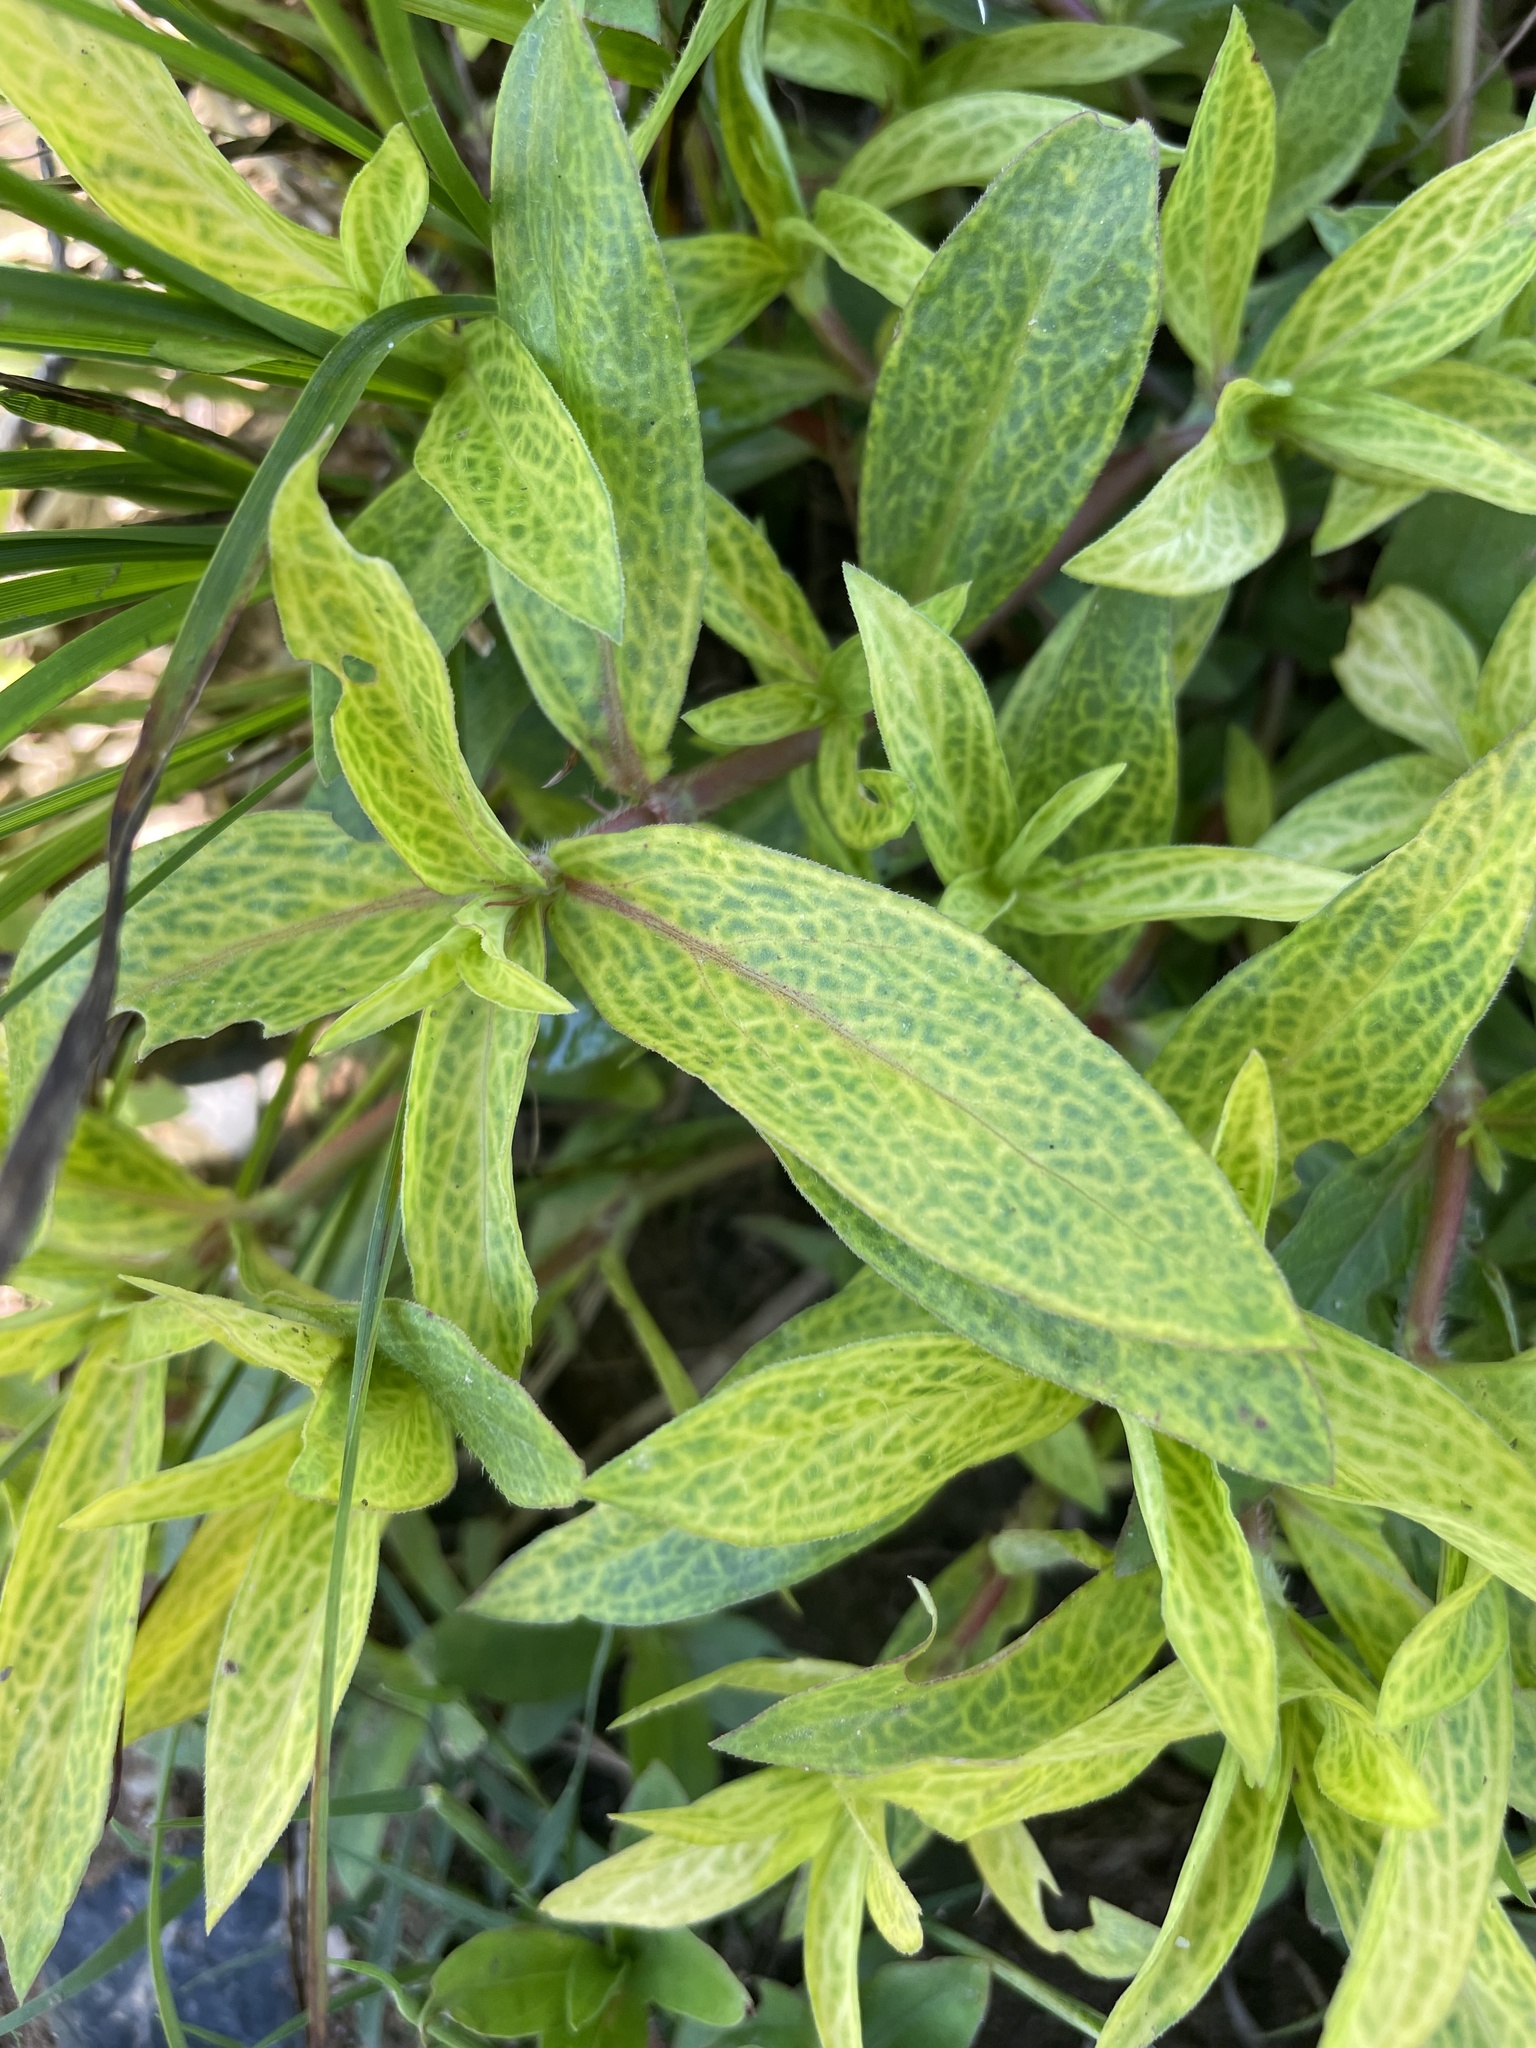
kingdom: Viruses
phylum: Kitrinoviricota
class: Alsuviricetes
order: Martellivirales
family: Closteroviridae
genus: Crinivirus
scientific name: Crinivirus Diodia vein chlorosis virus
